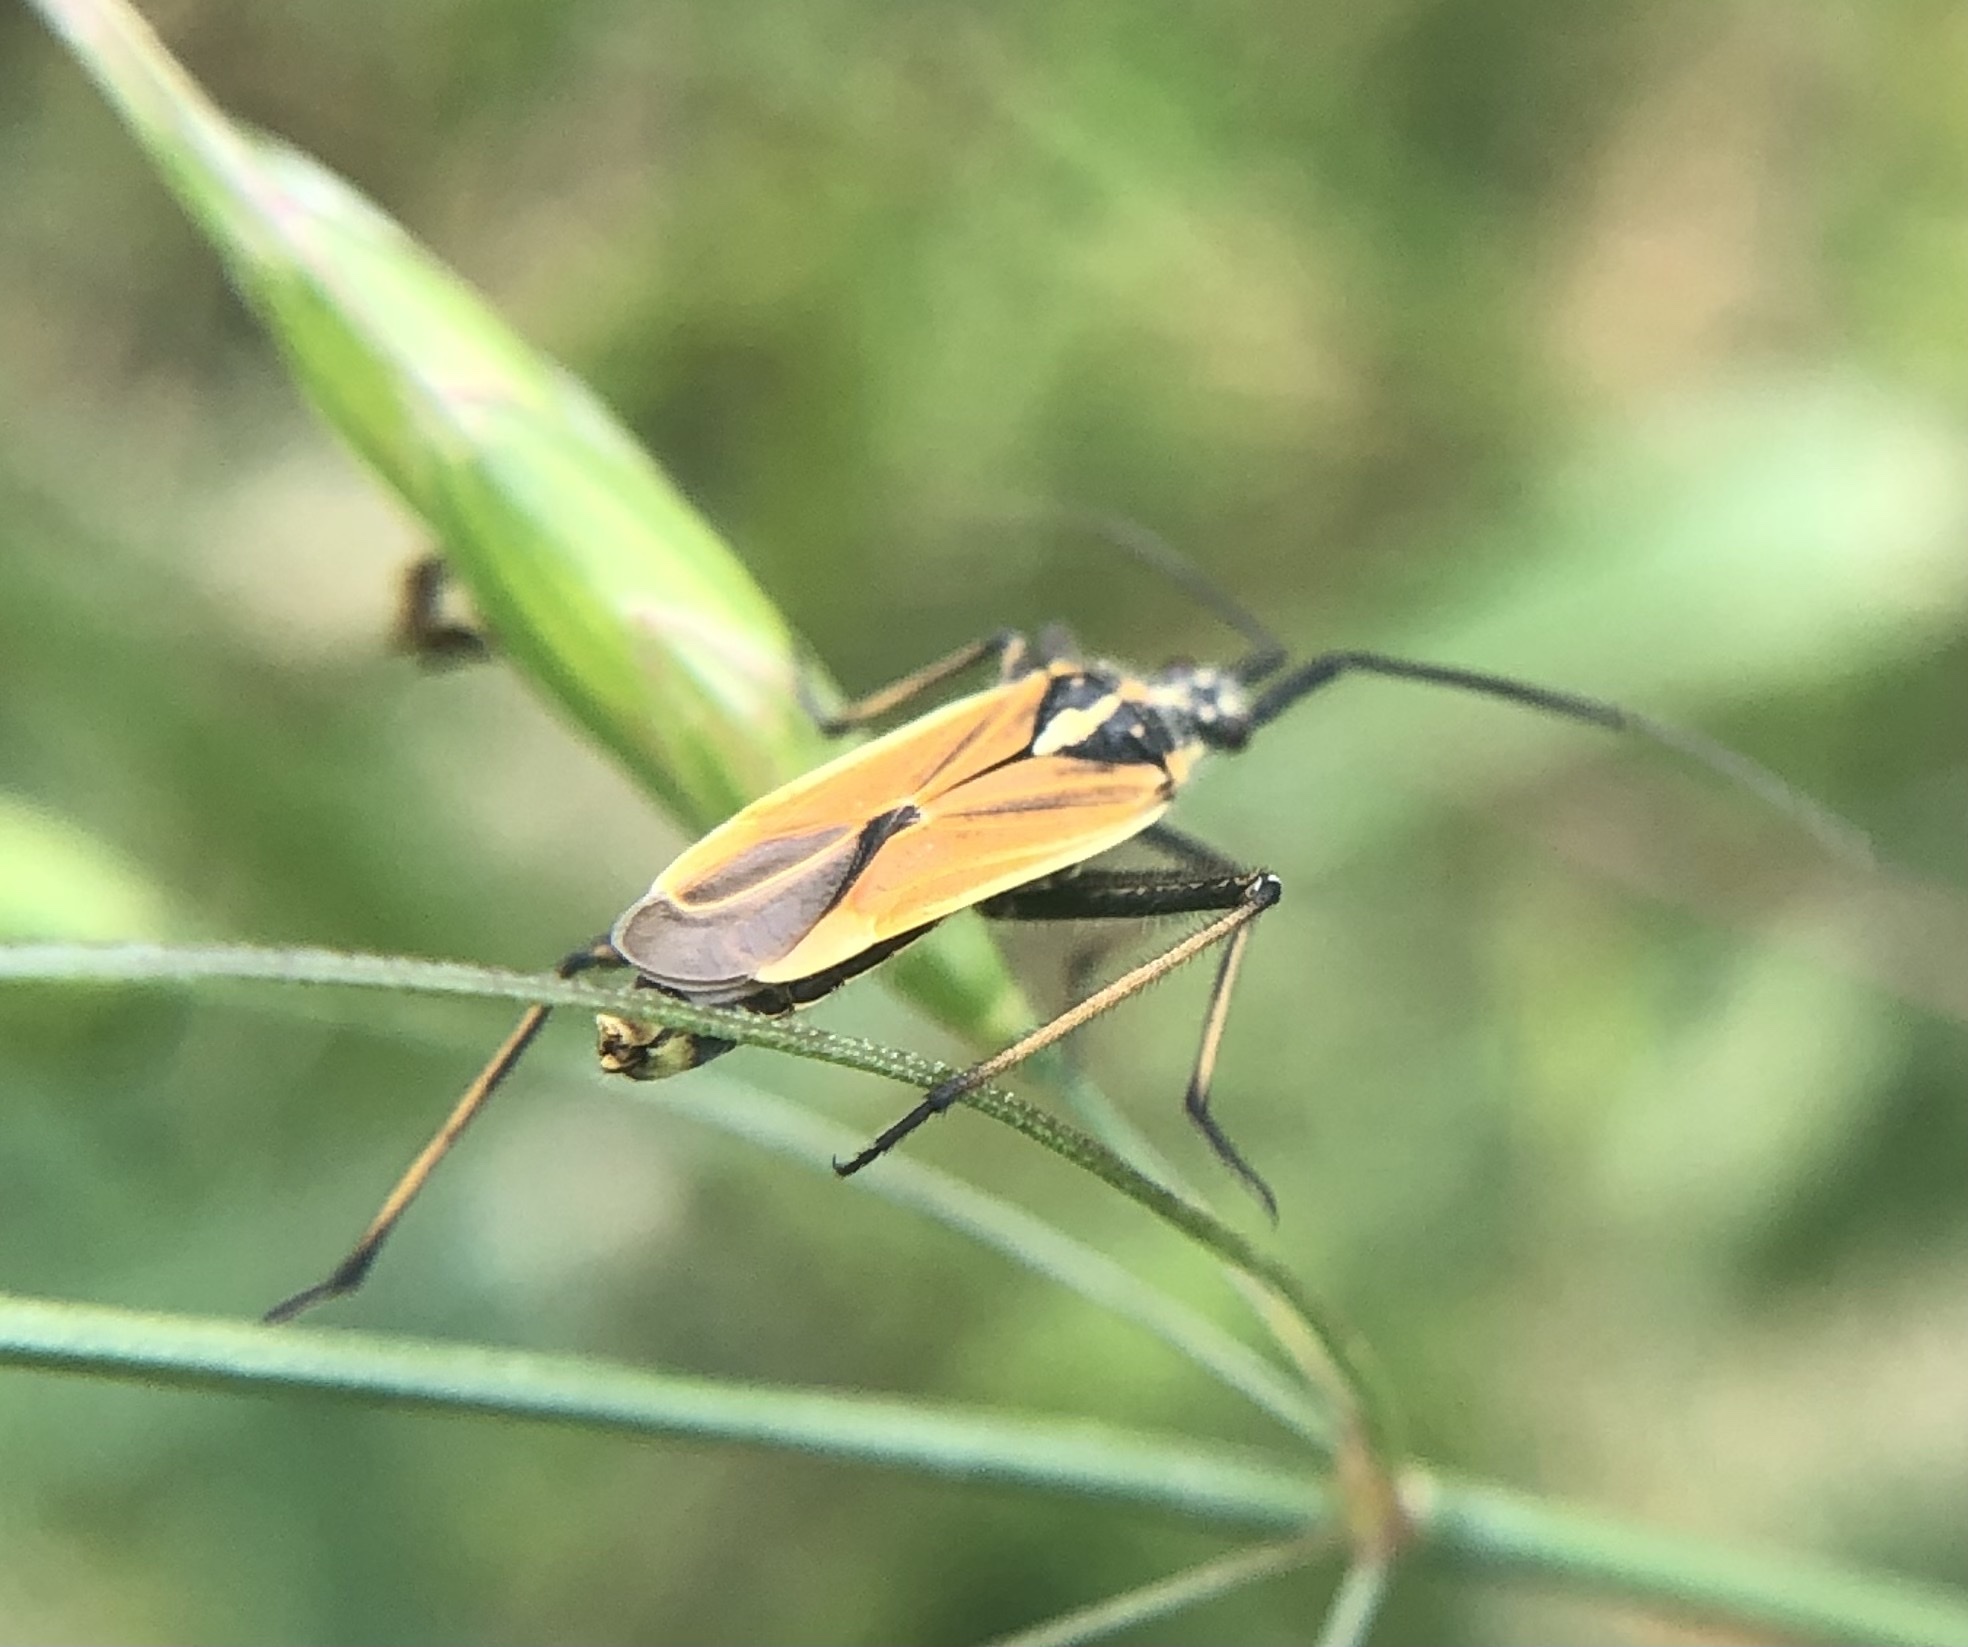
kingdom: Animalia
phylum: Arthropoda
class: Insecta
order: Hemiptera
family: Miridae
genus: Leptopterna
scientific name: Leptopterna dolabrata
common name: Meadow plant bug
